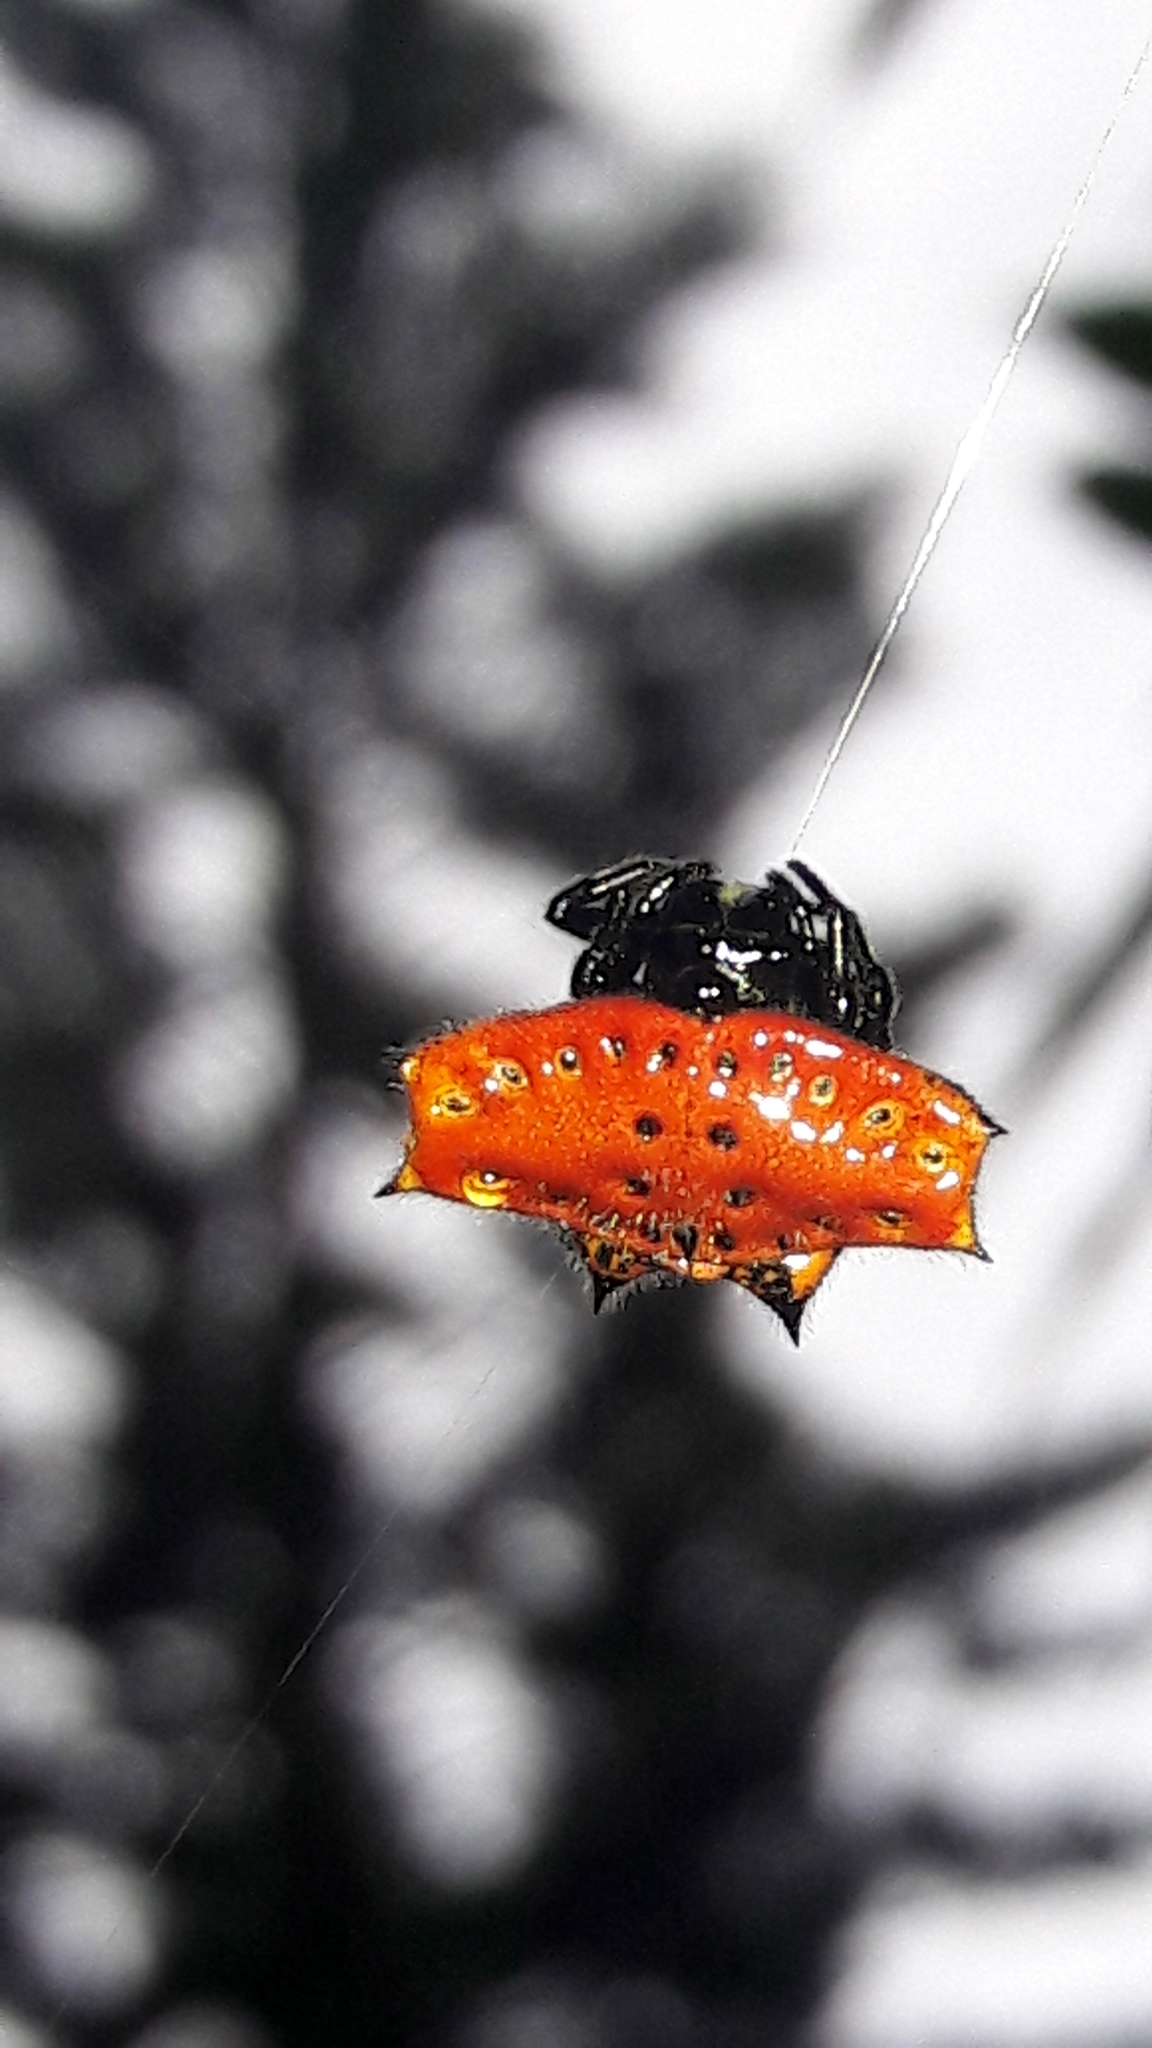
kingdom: Animalia
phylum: Arthropoda
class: Arachnida
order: Araneae
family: Araneidae
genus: Gasteracantha
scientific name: Gasteracantha cancriformis
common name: Orb weavers
